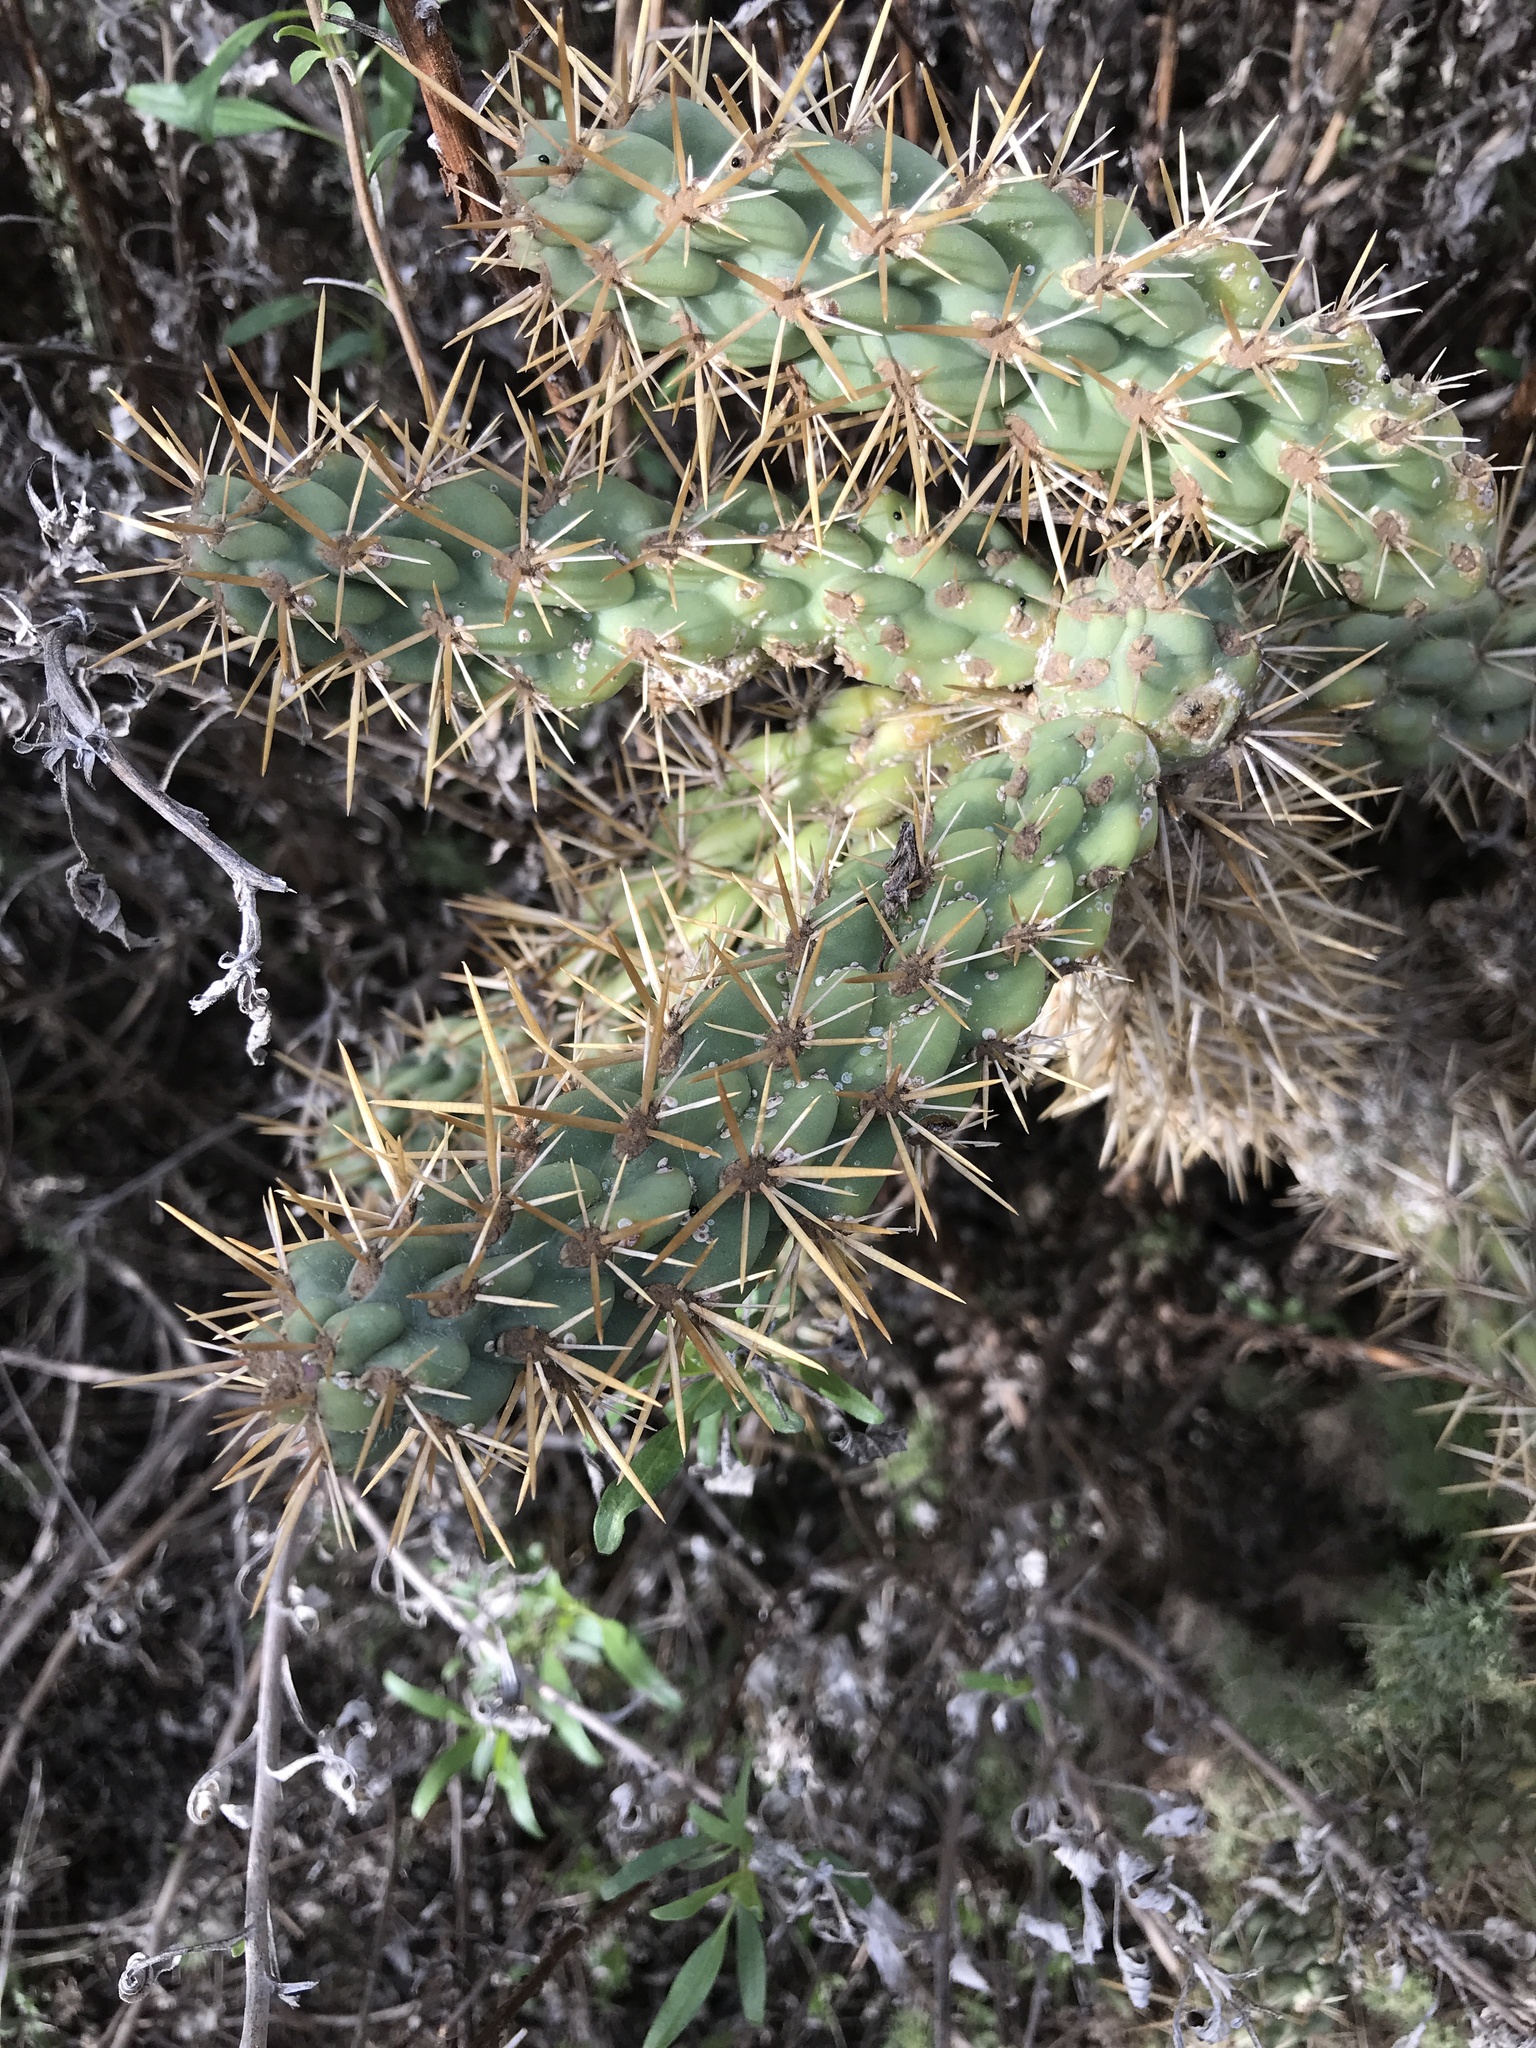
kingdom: Plantae
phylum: Tracheophyta
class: Magnoliopsida
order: Caryophyllales
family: Cactaceae
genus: Cylindropuntia
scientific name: Cylindropuntia prolifera
